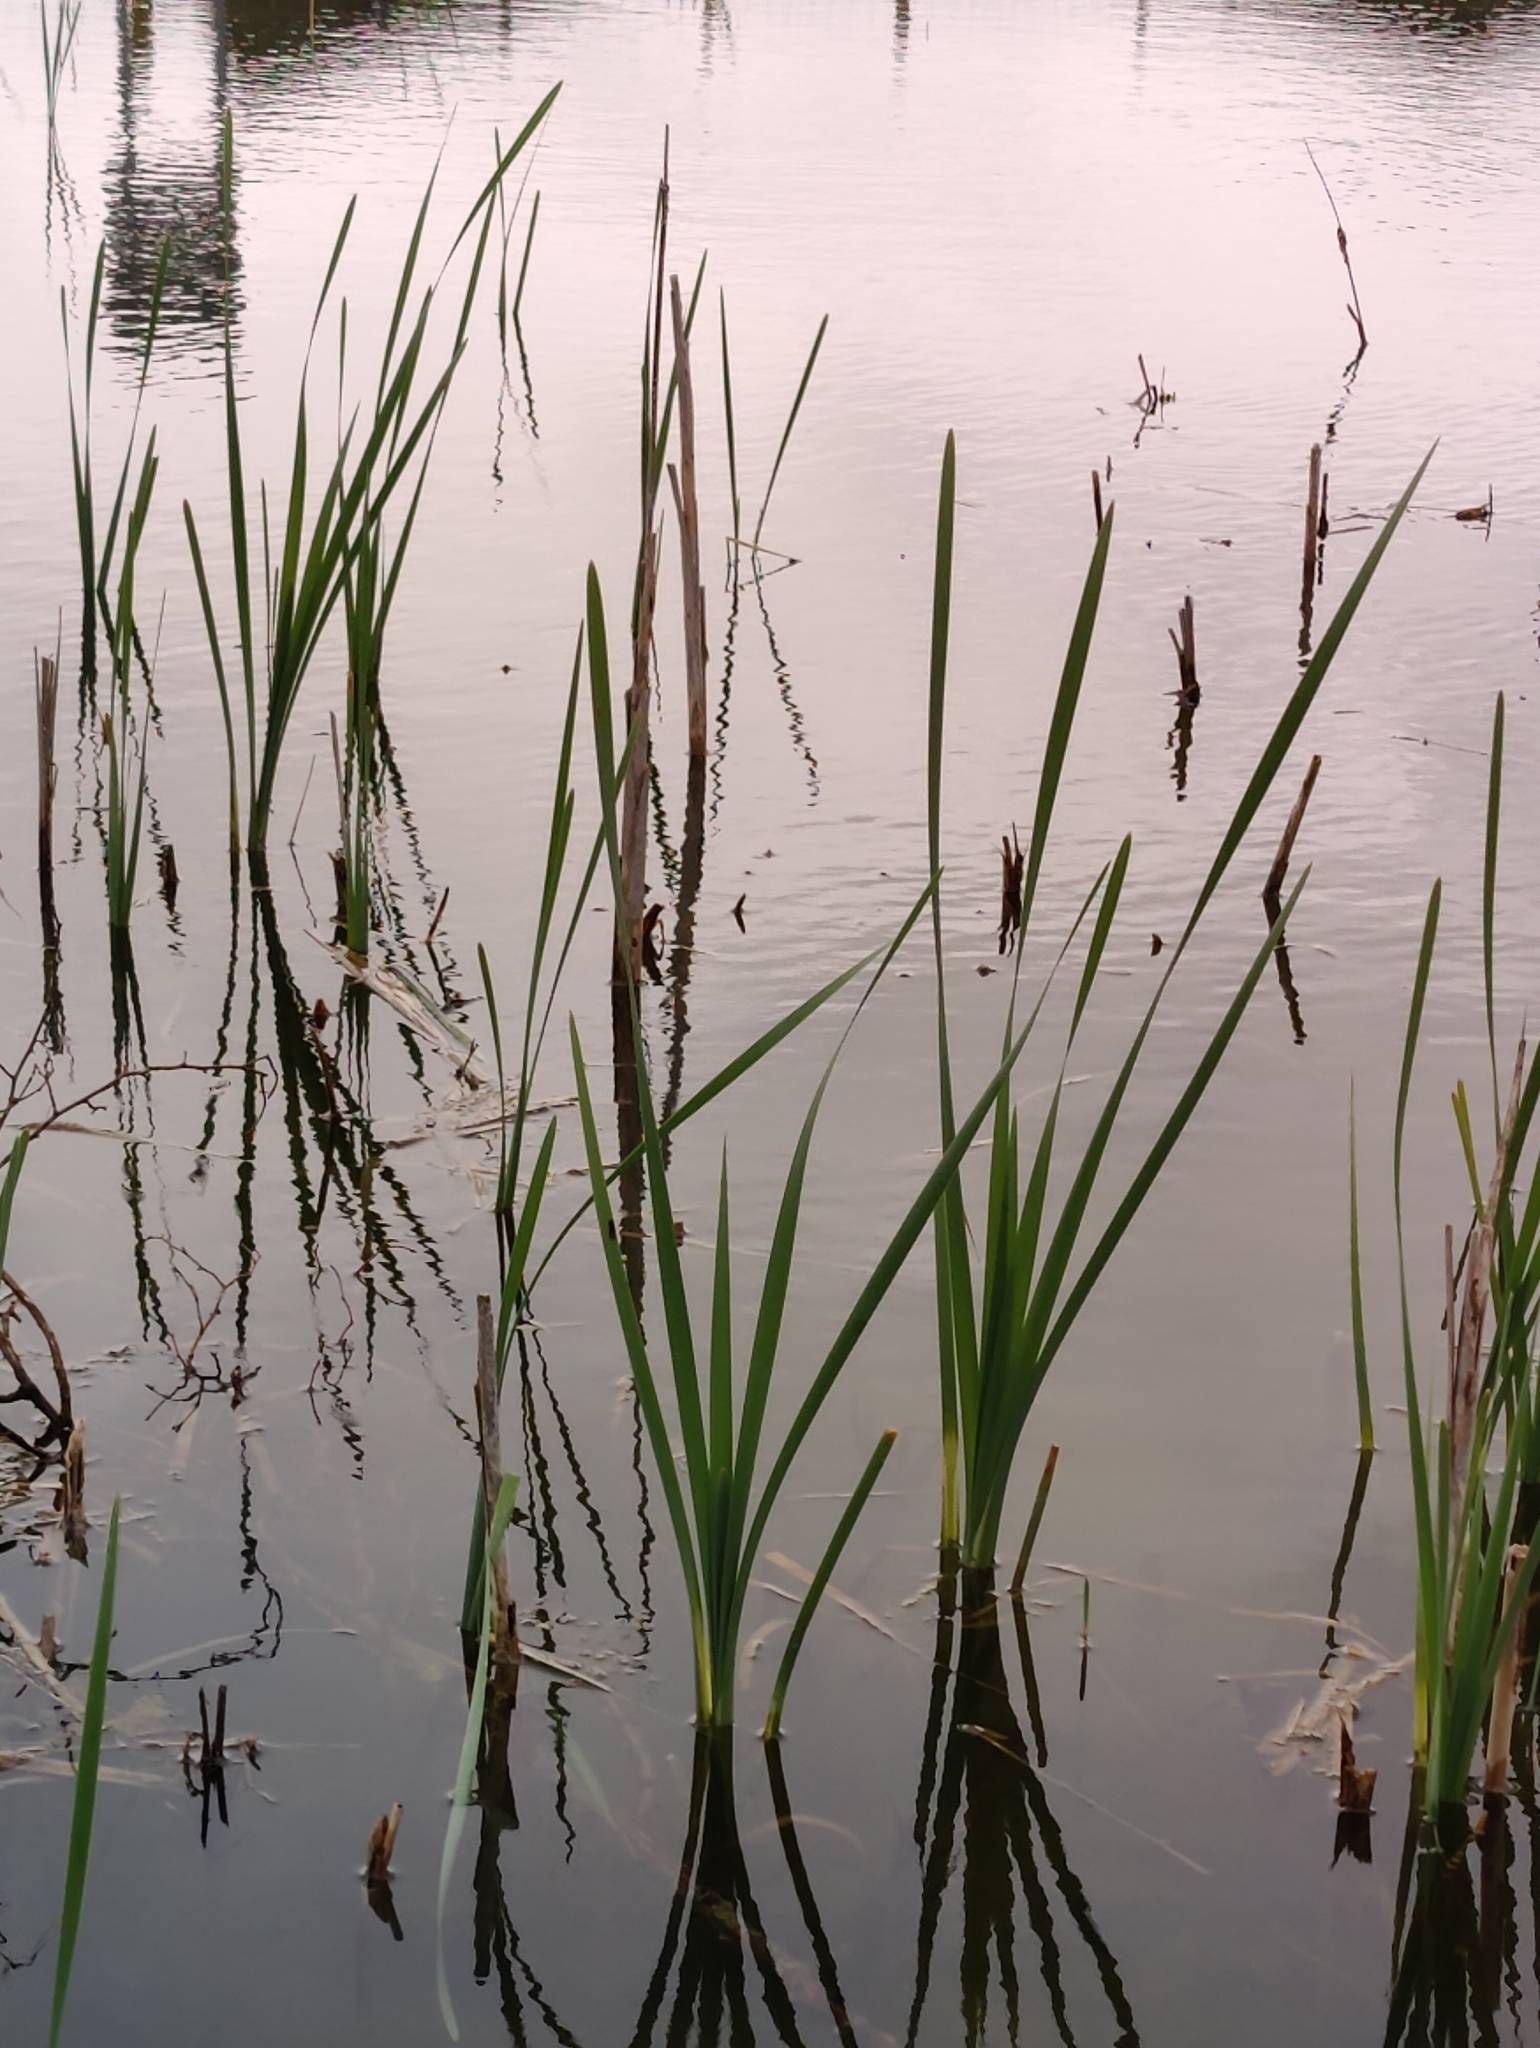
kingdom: Plantae
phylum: Tracheophyta
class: Liliopsida
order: Poales
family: Typhaceae
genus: Typha
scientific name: Typha latifolia
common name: Broadleaf cattail
